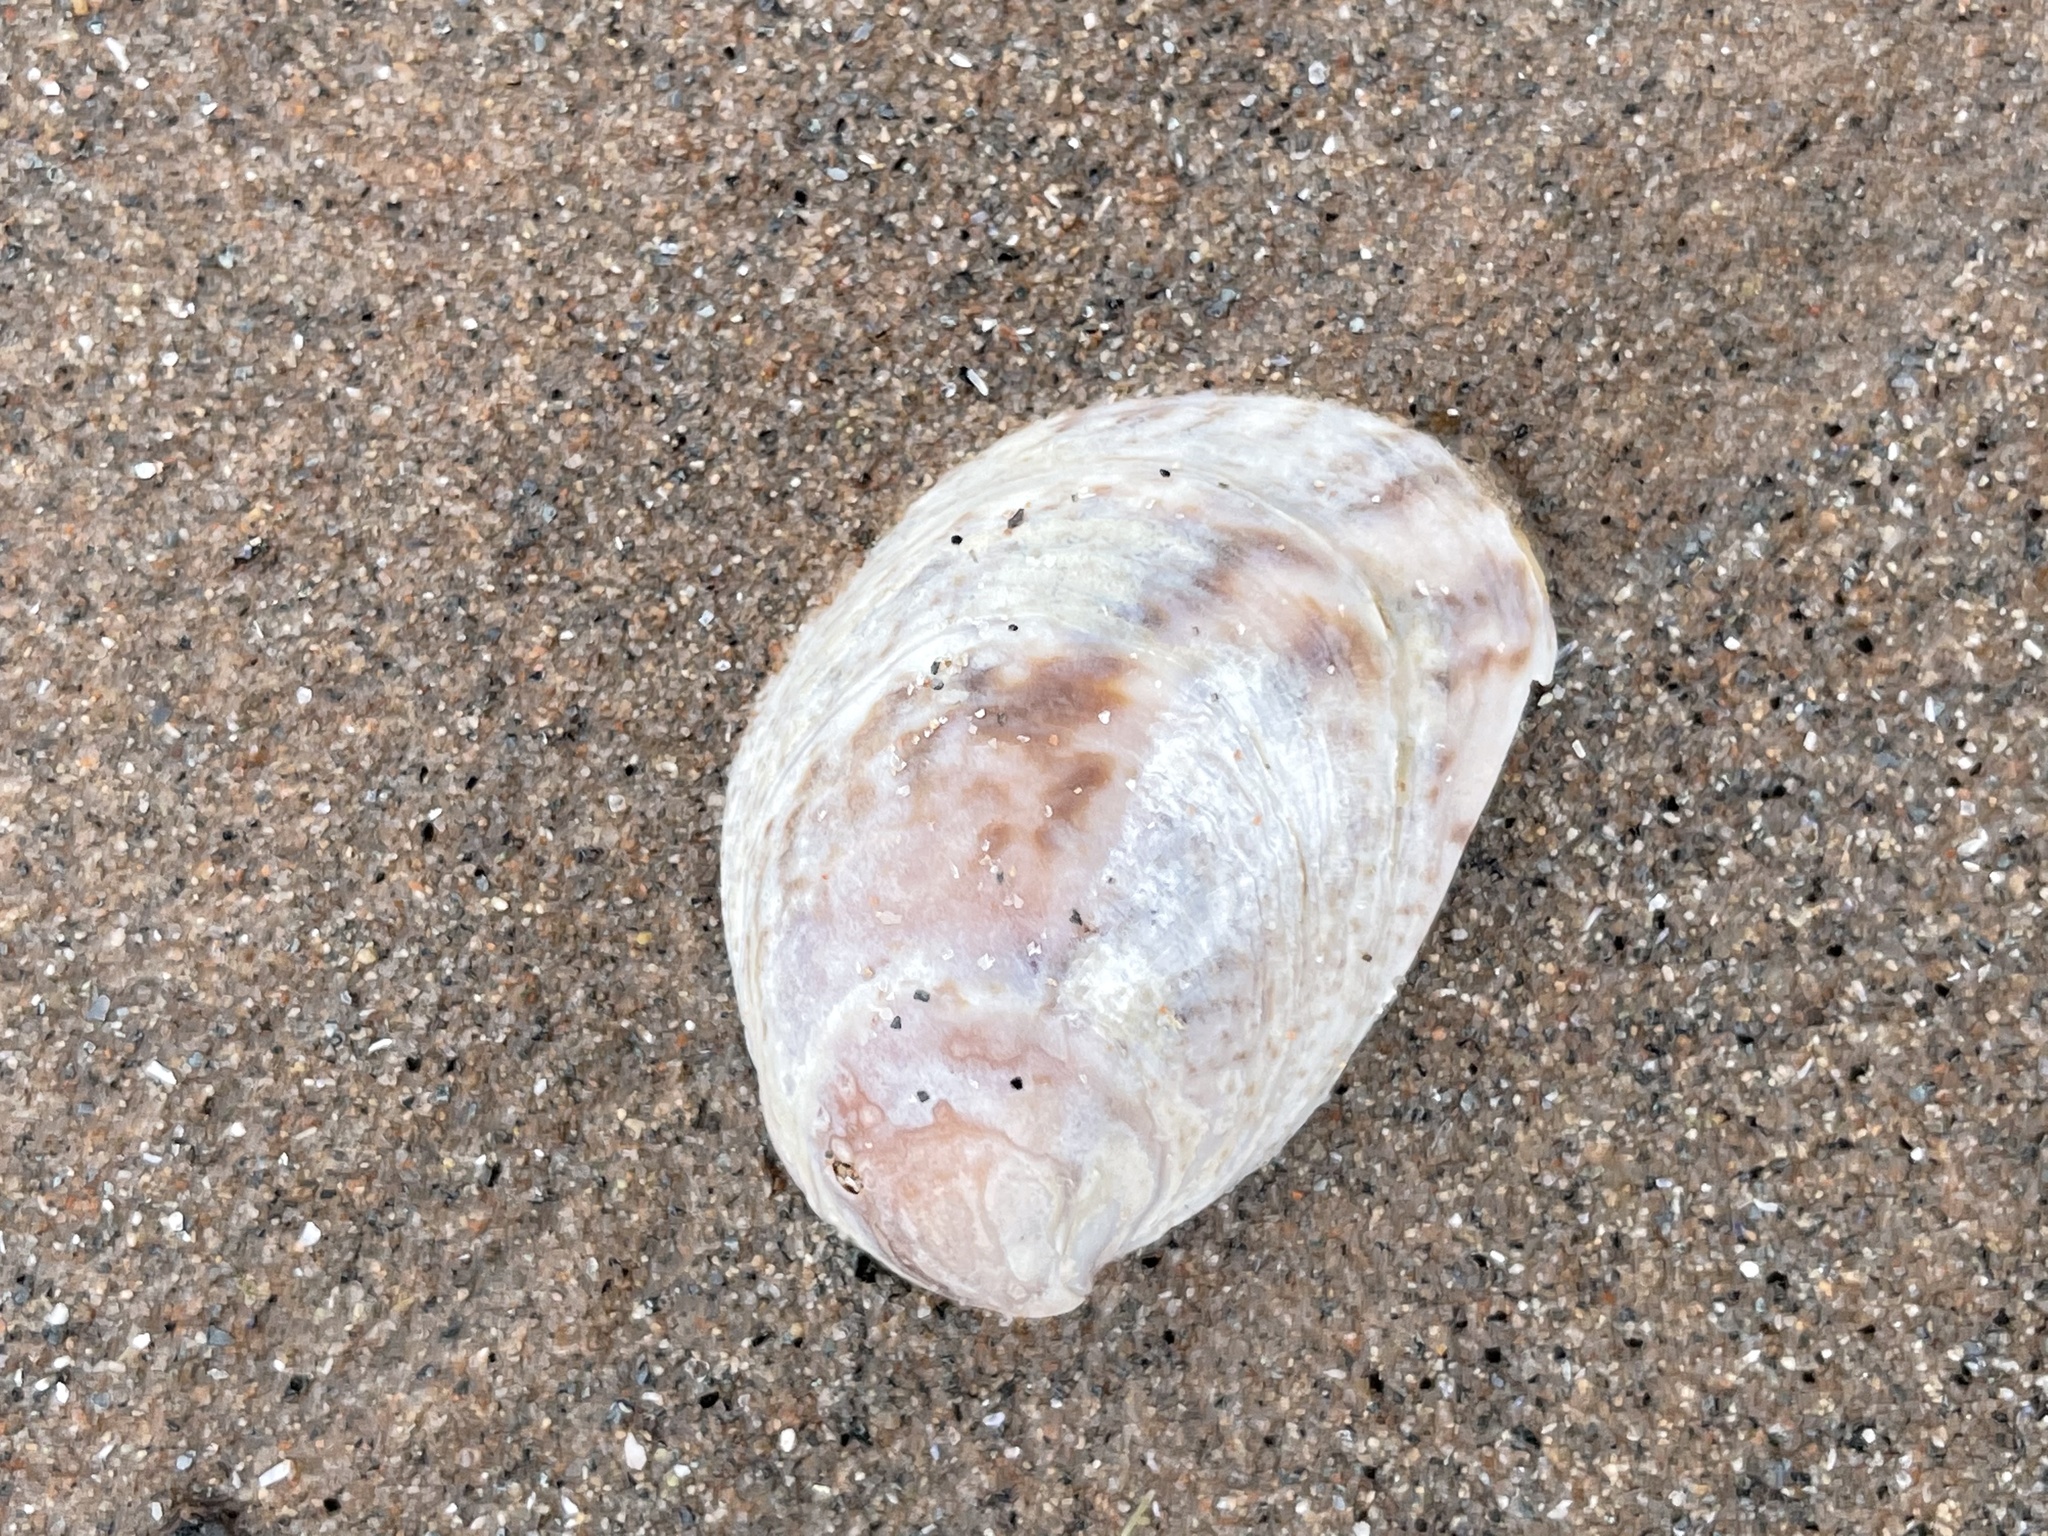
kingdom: Animalia
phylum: Mollusca
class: Gastropoda
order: Littorinimorpha
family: Calyptraeidae
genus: Crepidula
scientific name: Crepidula fornicata
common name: Slipper limpet
